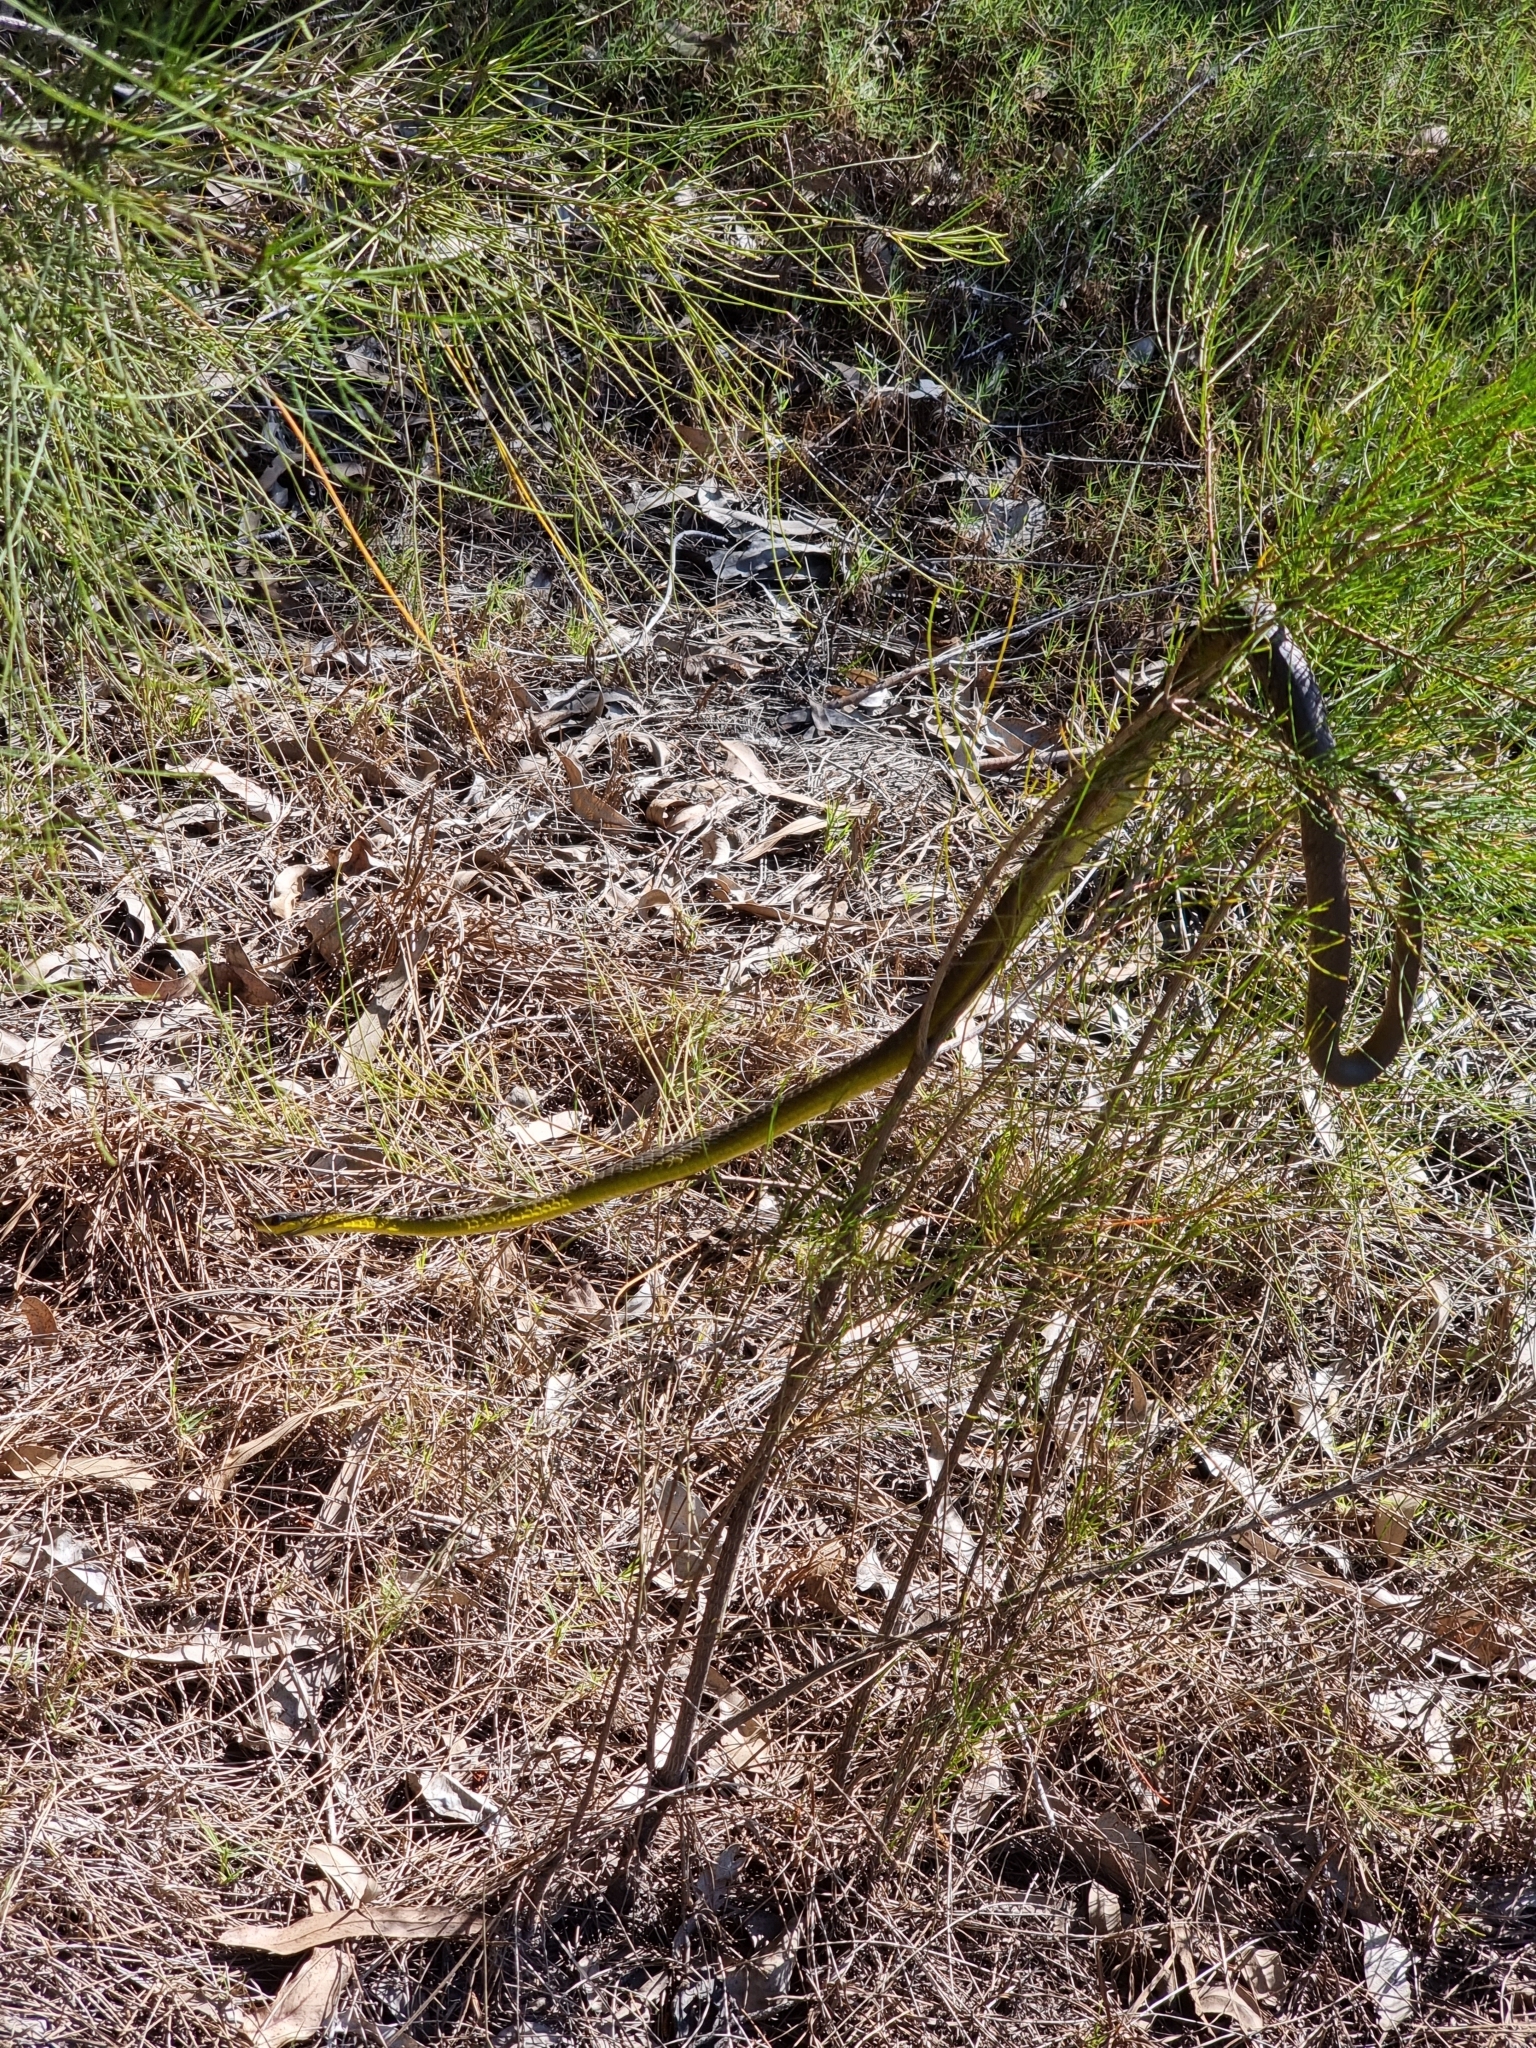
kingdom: Animalia
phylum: Chordata
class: Squamata
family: Colubridae
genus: Dendrelaphis
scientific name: Dendrelaphis punctulatus
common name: Common tree snake
